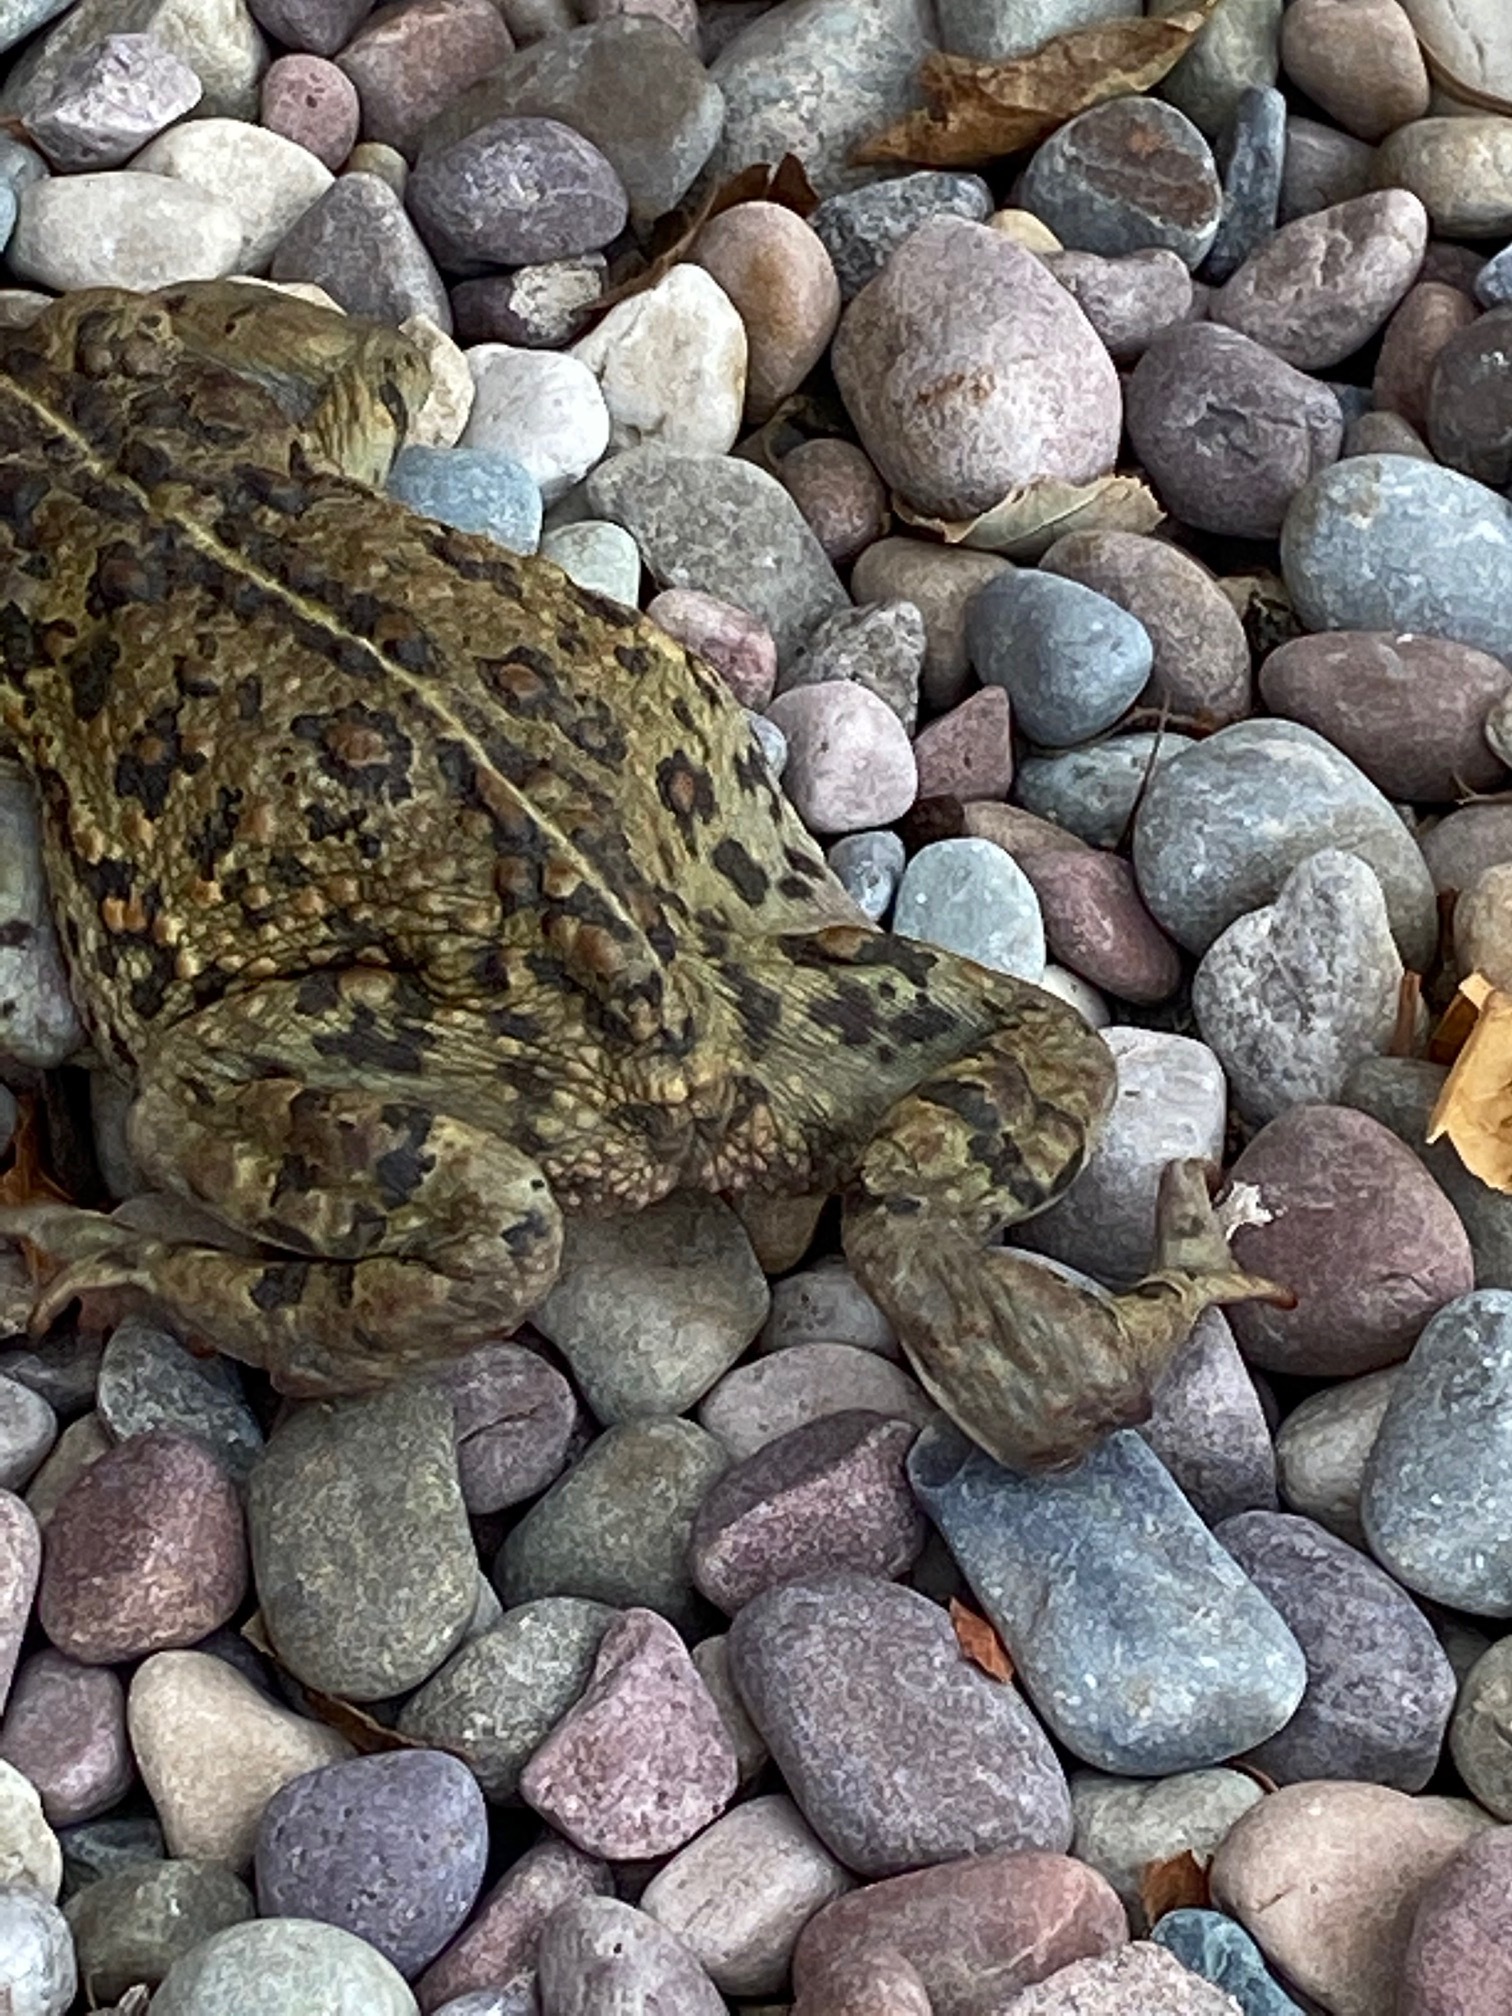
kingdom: Animalia
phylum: Chordata
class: Amphibia
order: Anura
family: Bufonidae
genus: Anaxyrus
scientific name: Anaxyrus boreas
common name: Western toad
